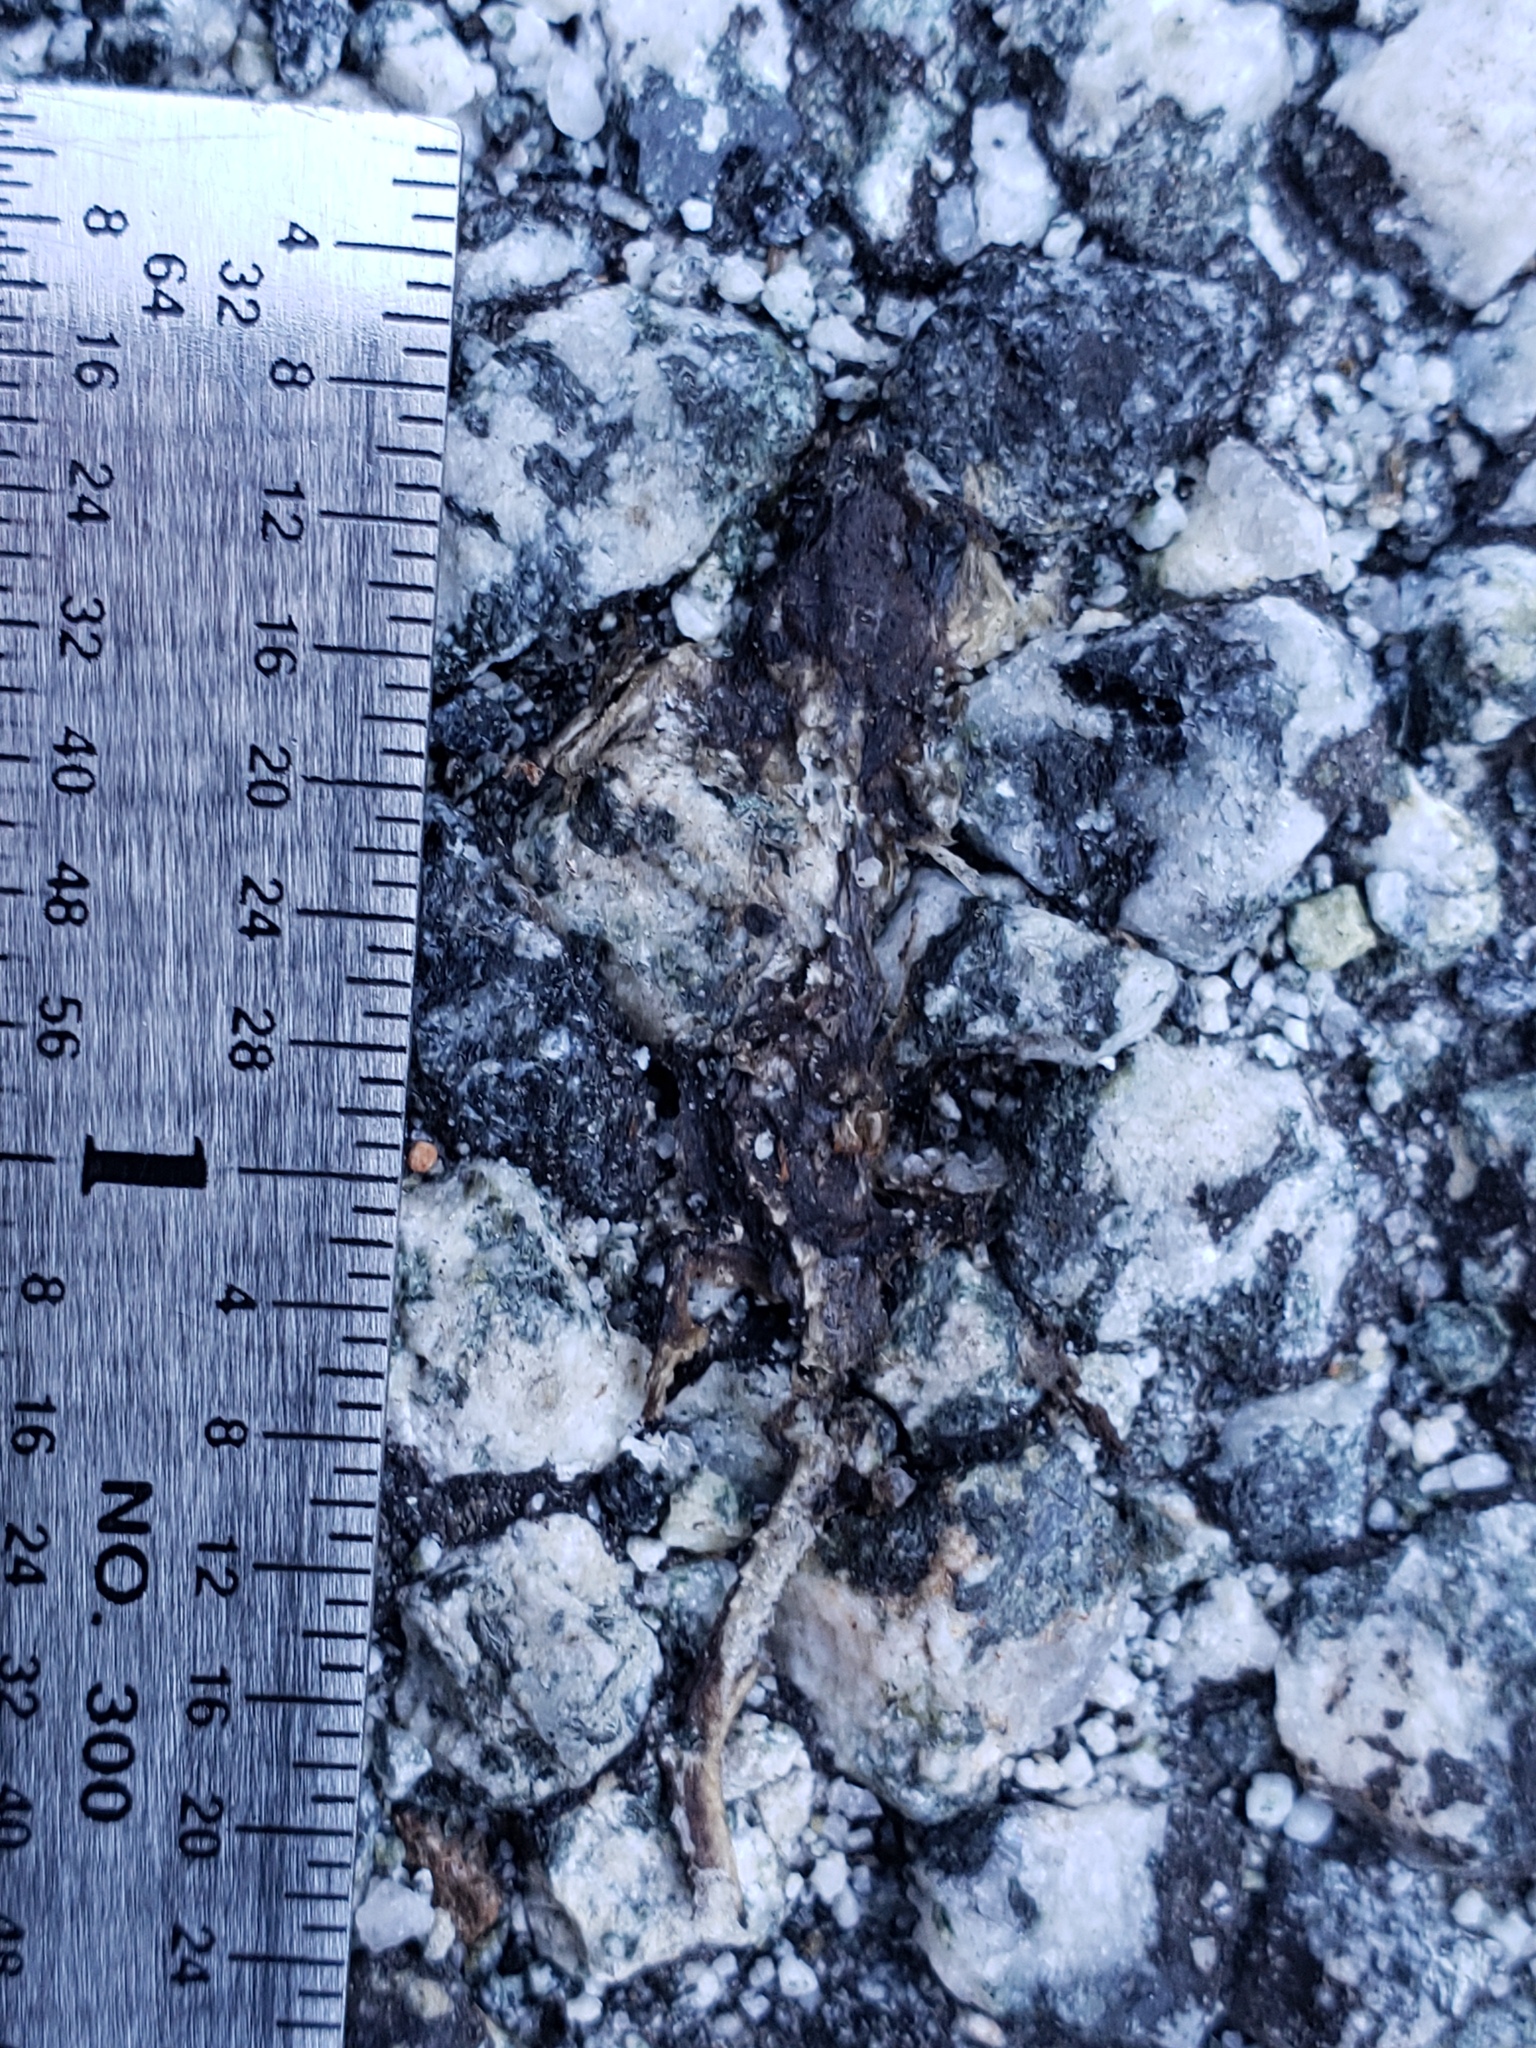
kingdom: Animalia
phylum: Chordata
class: Amphibia
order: Caudata
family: Salamandridae
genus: Taricha
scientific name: Taricha
